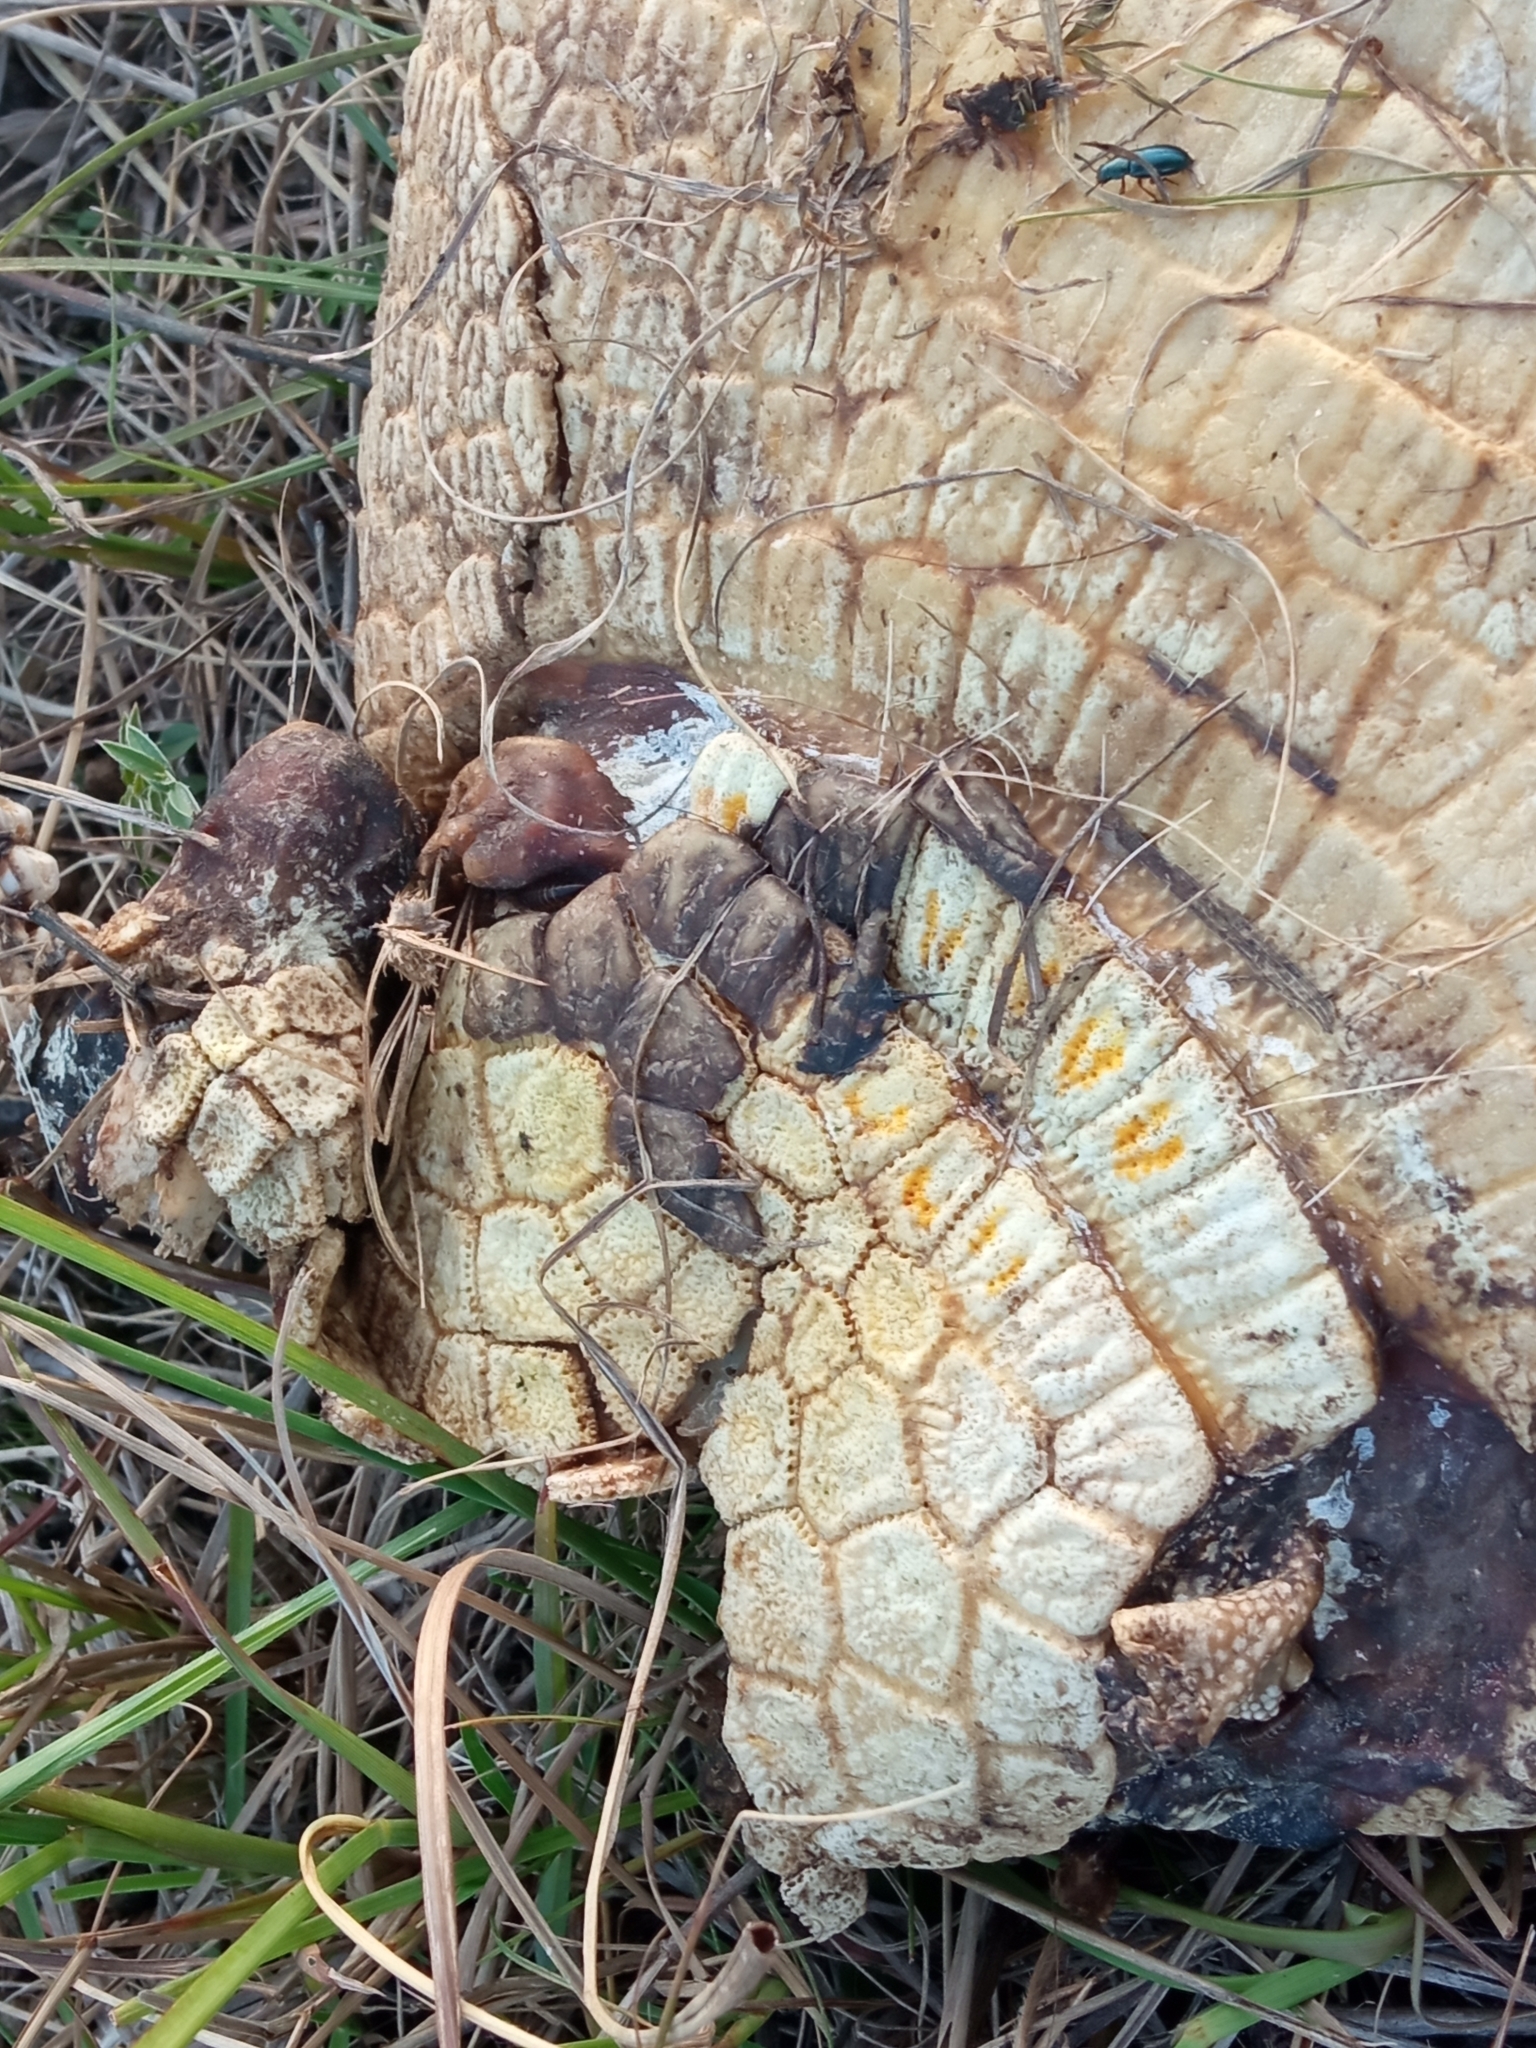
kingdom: Animalia
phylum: Chordata
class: Mammalia
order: Cingulata
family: Dasypodidae
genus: Euphractus
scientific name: Euphractus sexcinctus
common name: Six-banded armadillo
